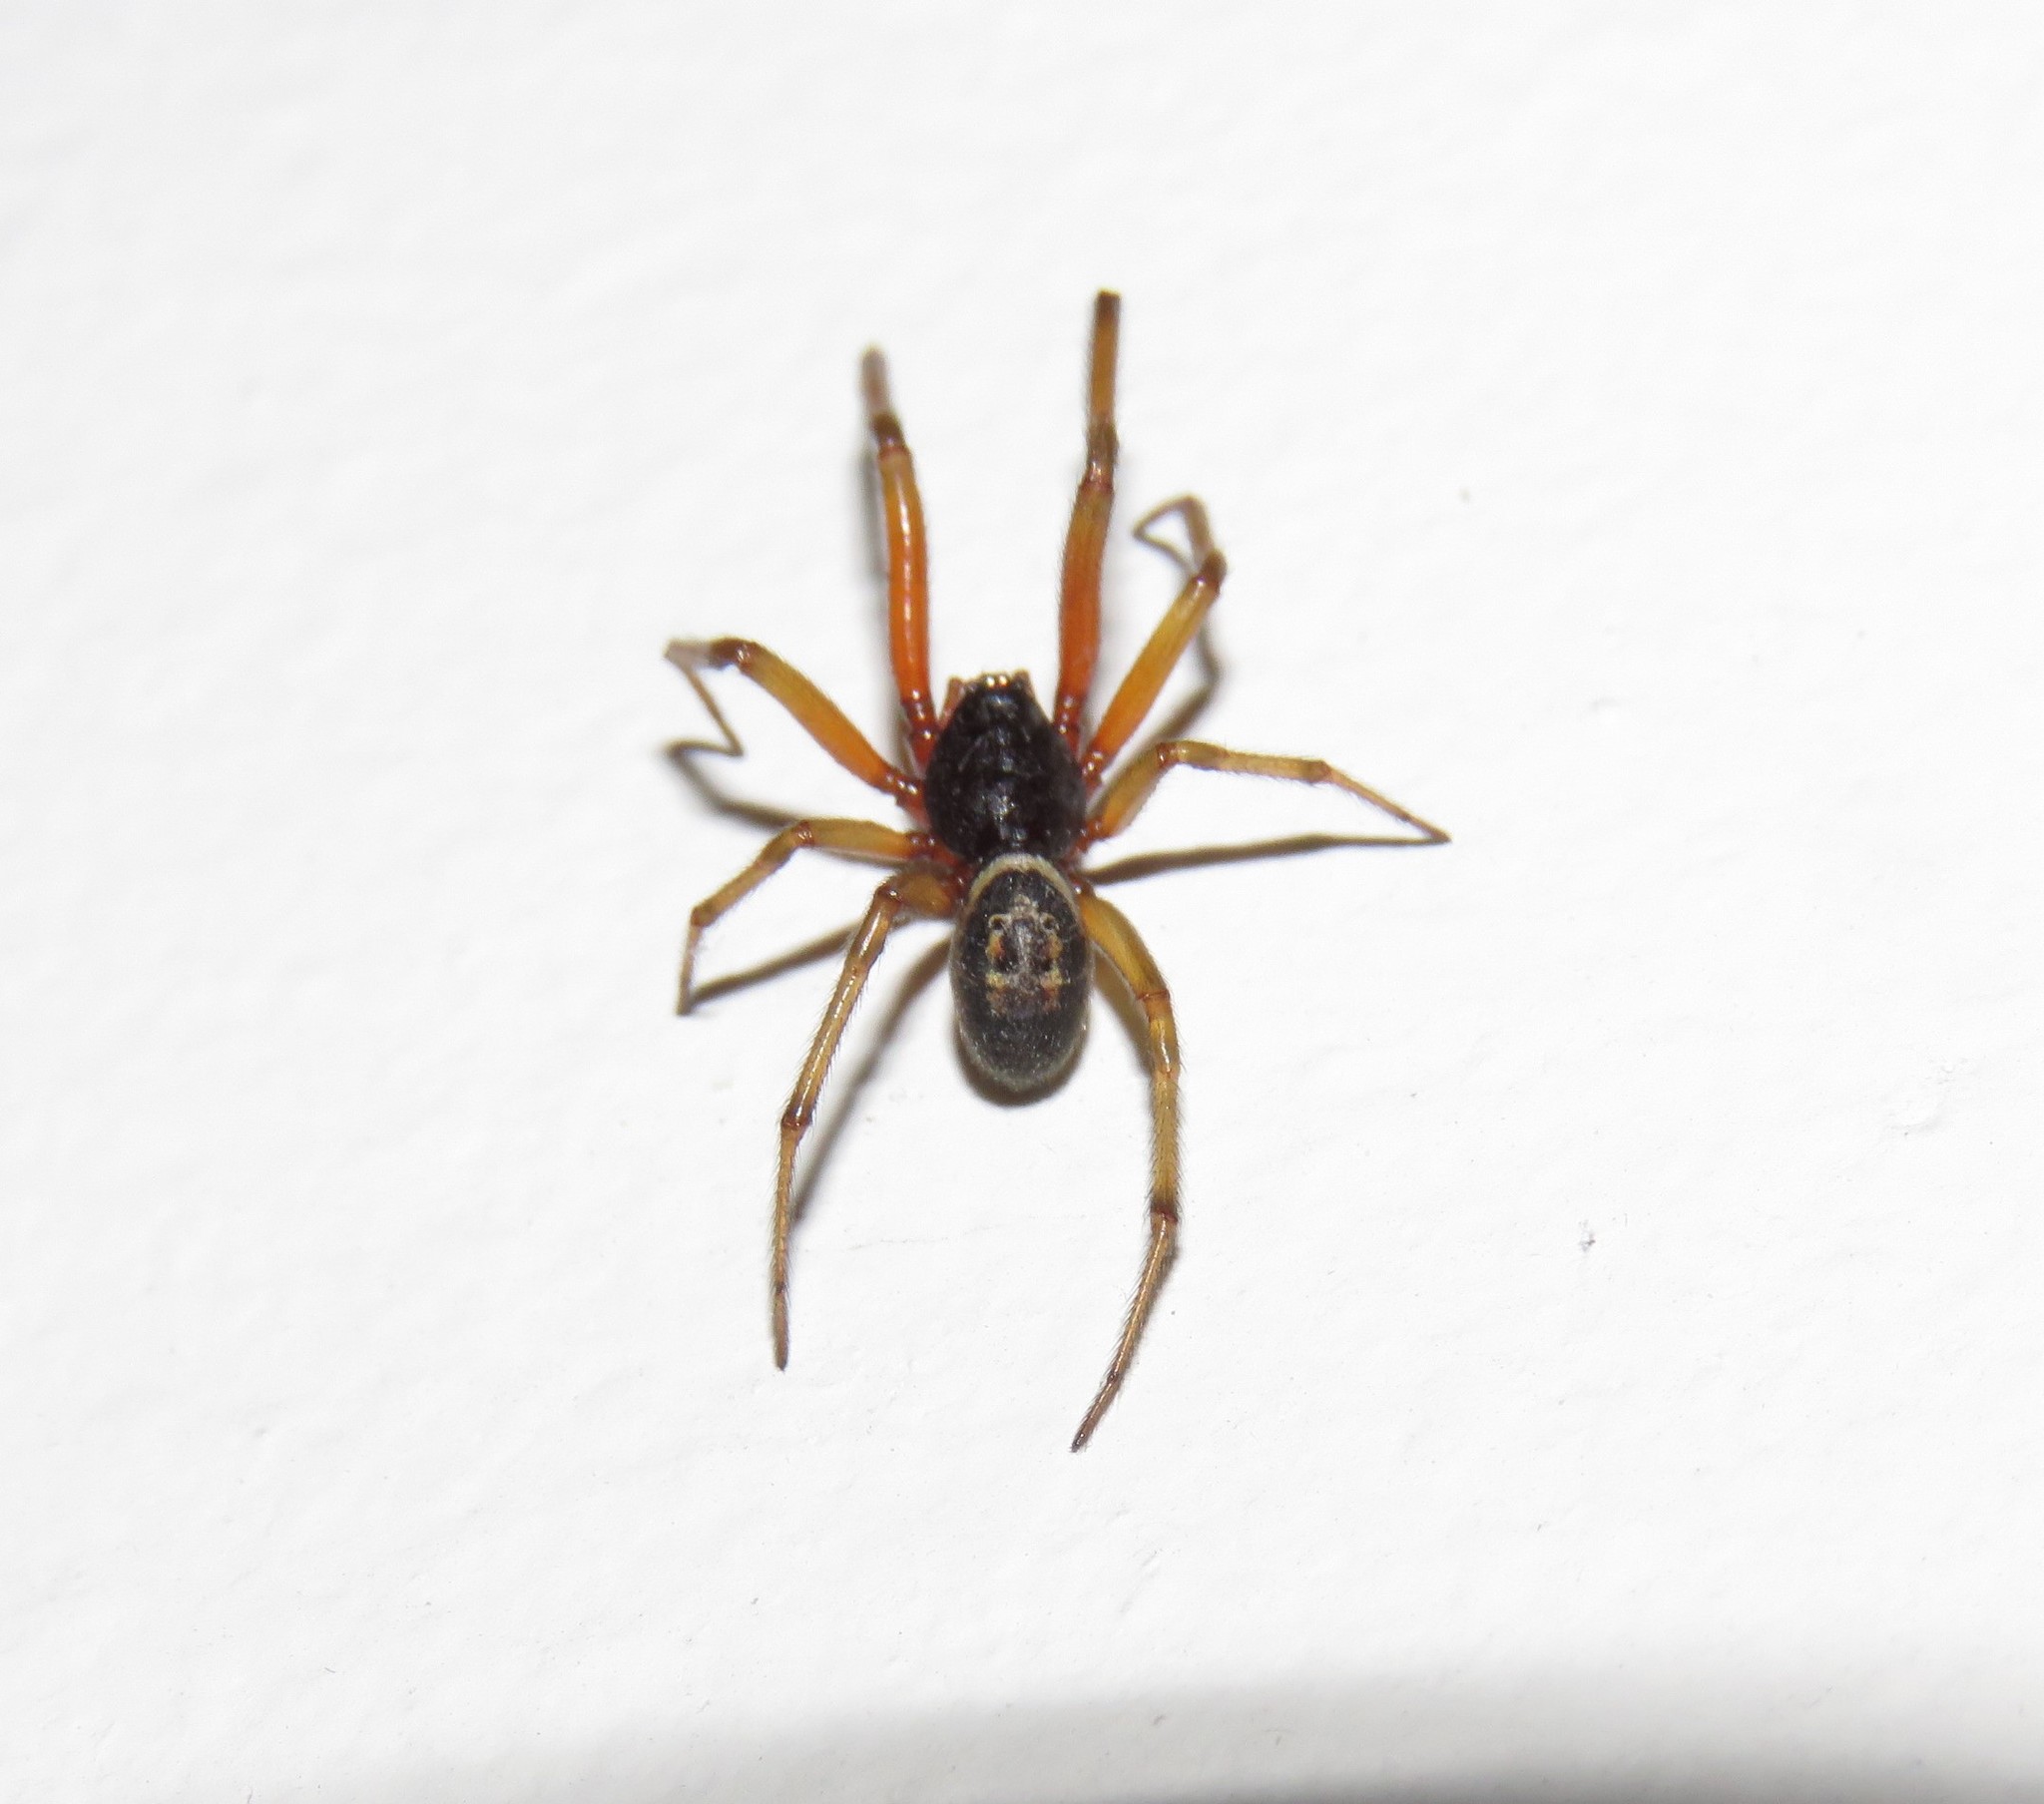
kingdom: Animalia
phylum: Arthropoda
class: Arachnida
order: Araneae
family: Theridiidae
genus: Steatoda
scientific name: Steatoda nobilis
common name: Cobweb weaver
